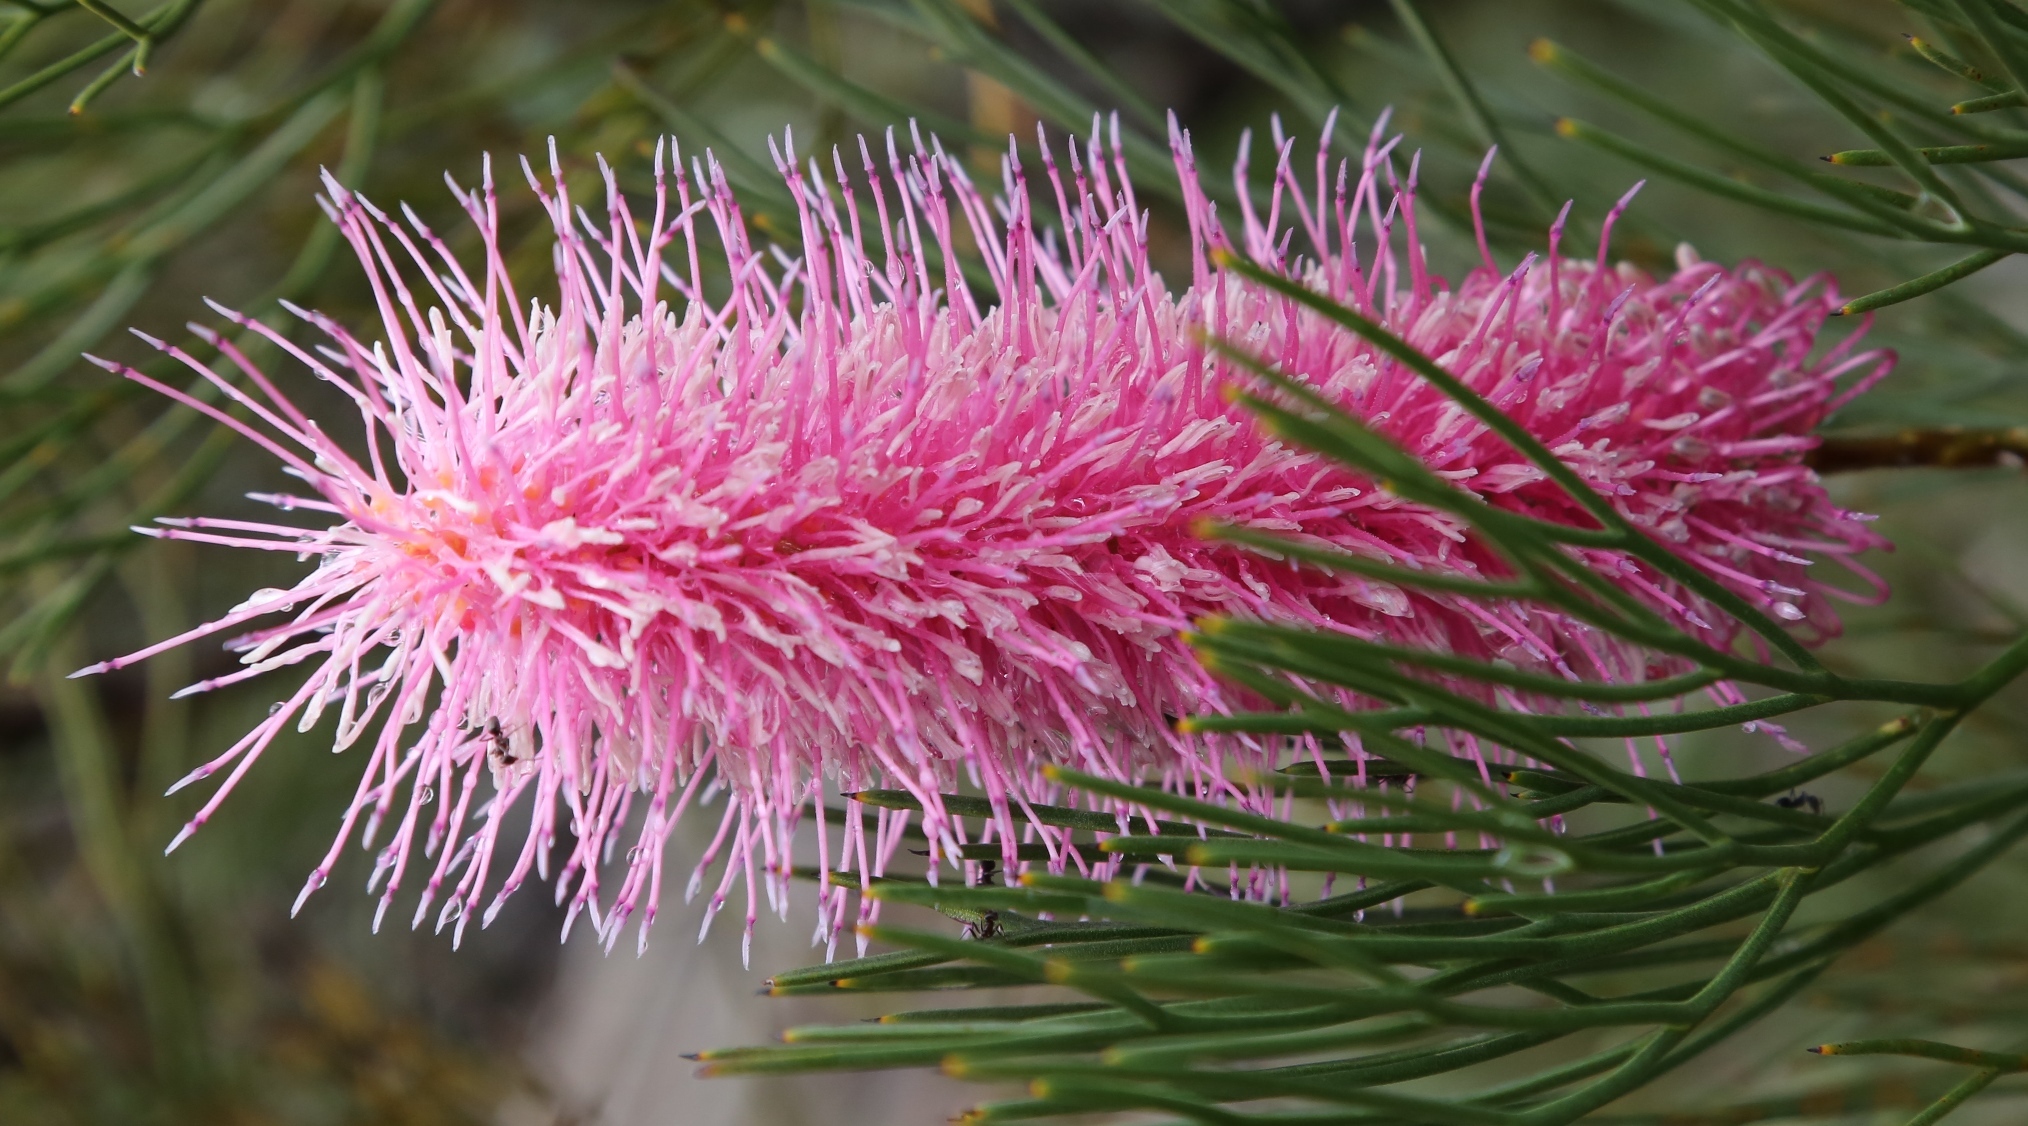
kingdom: Plantae
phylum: Tracheophyta
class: Magnoliopsida
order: Proteales
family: Proteaceae
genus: Grevillea
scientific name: Grevillea petrophiloides
